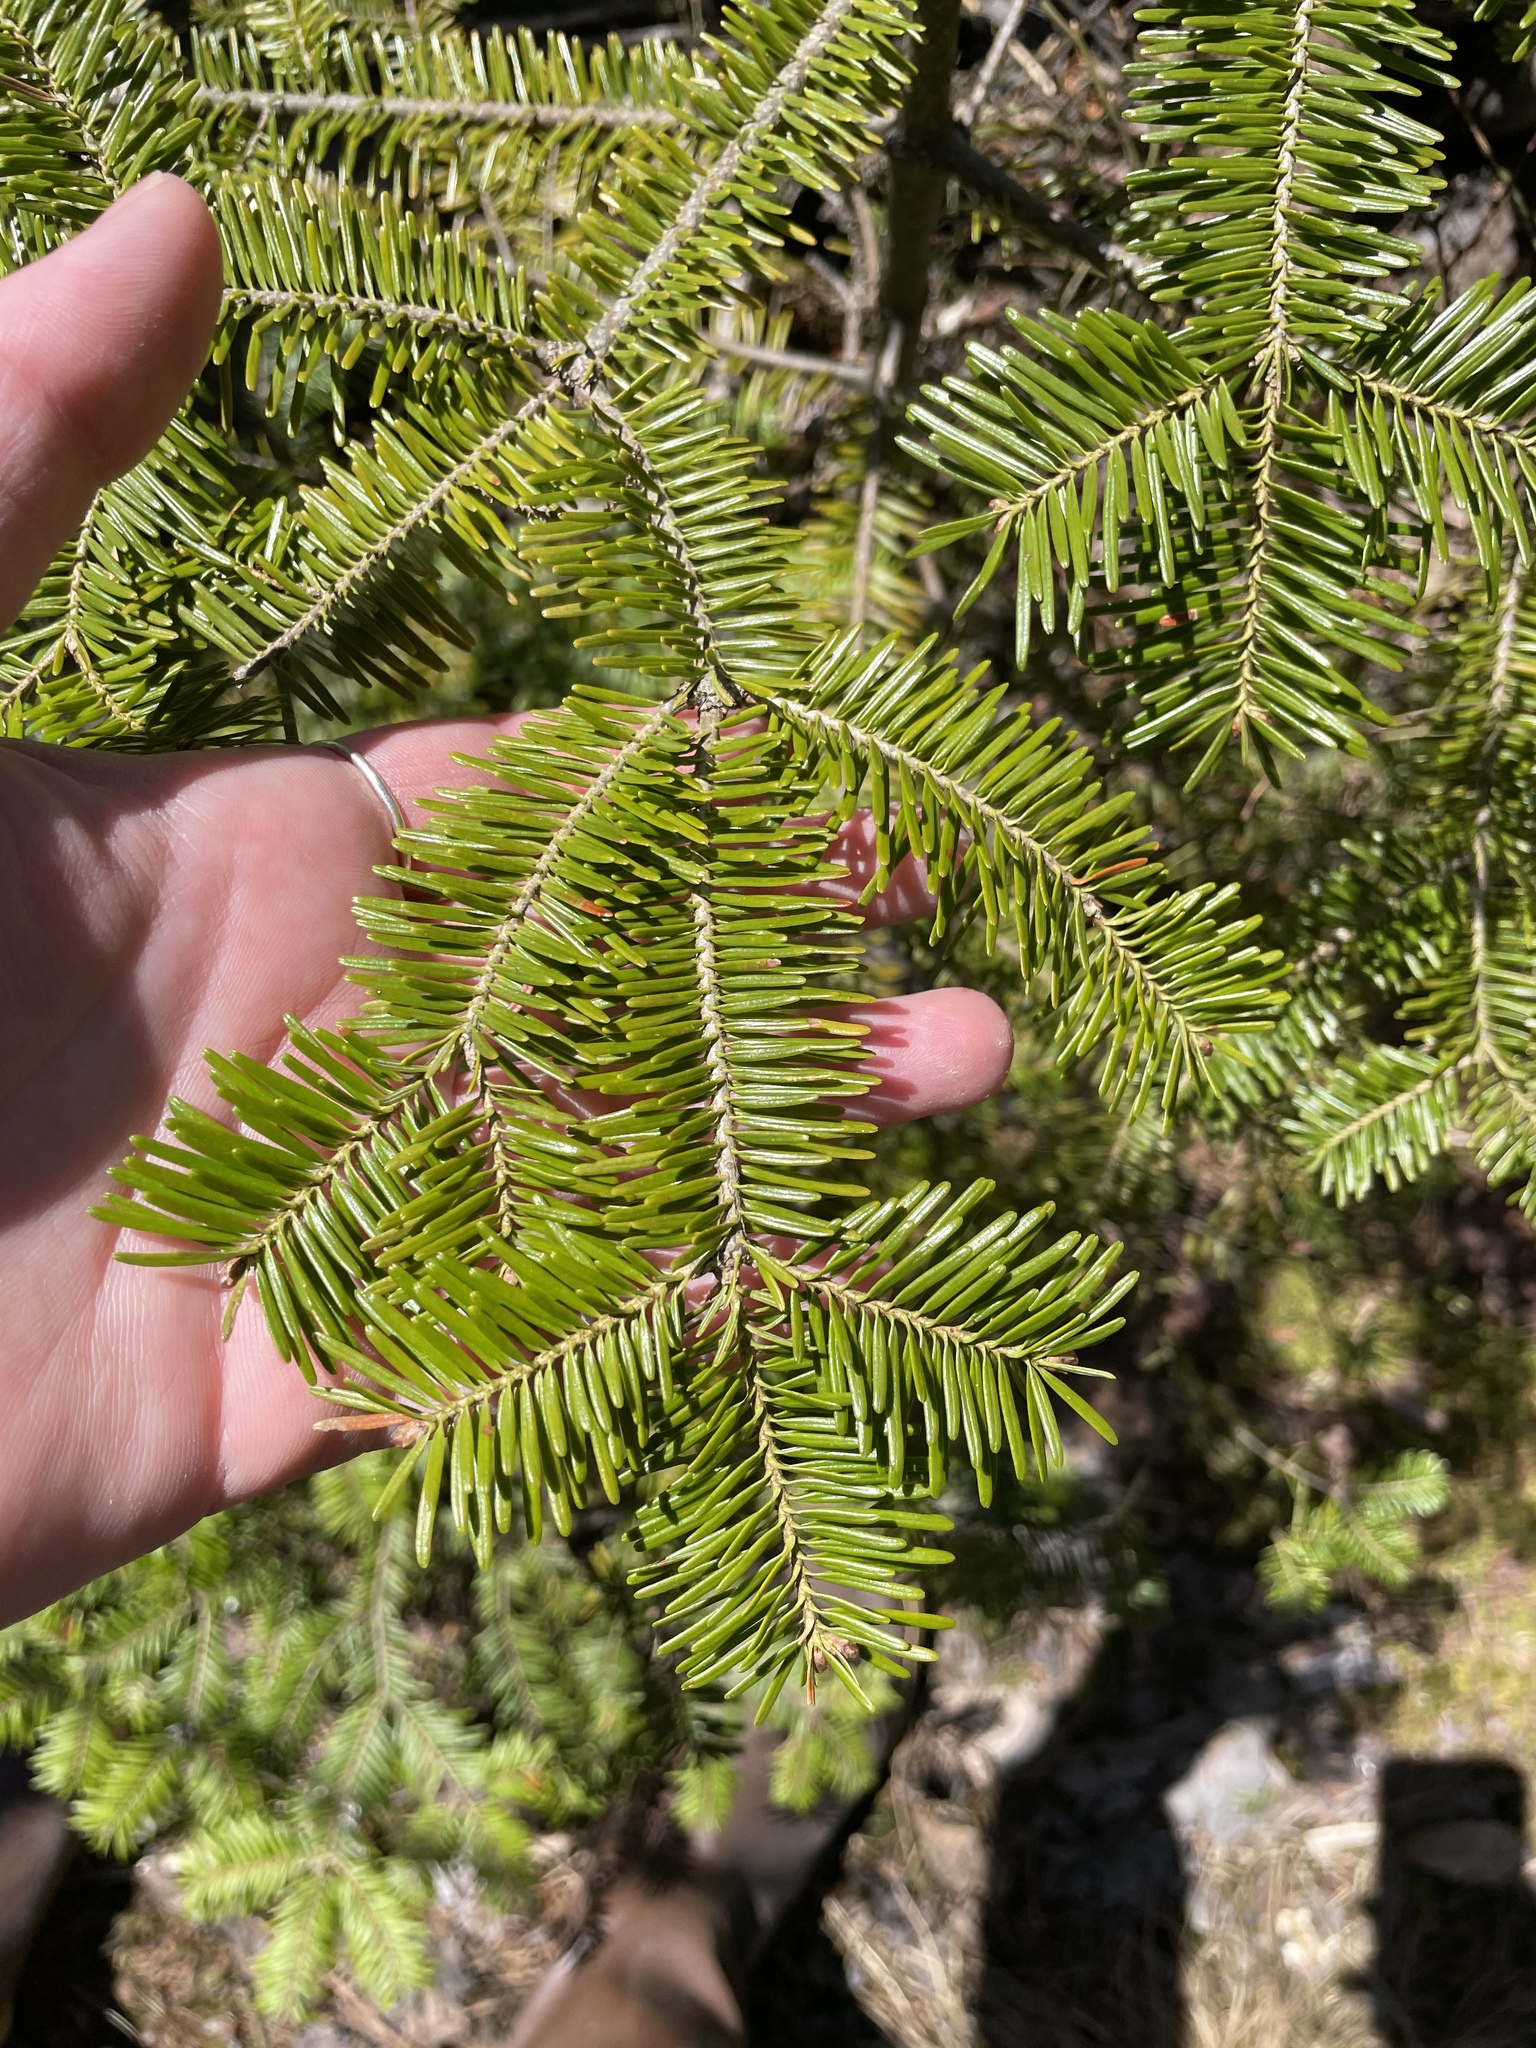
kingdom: Plantae
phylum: Tracheophyta
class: Pinopsida
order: Pinales
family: Pinaceae
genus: Abies
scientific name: Abies balsamea
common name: Balsam fir
